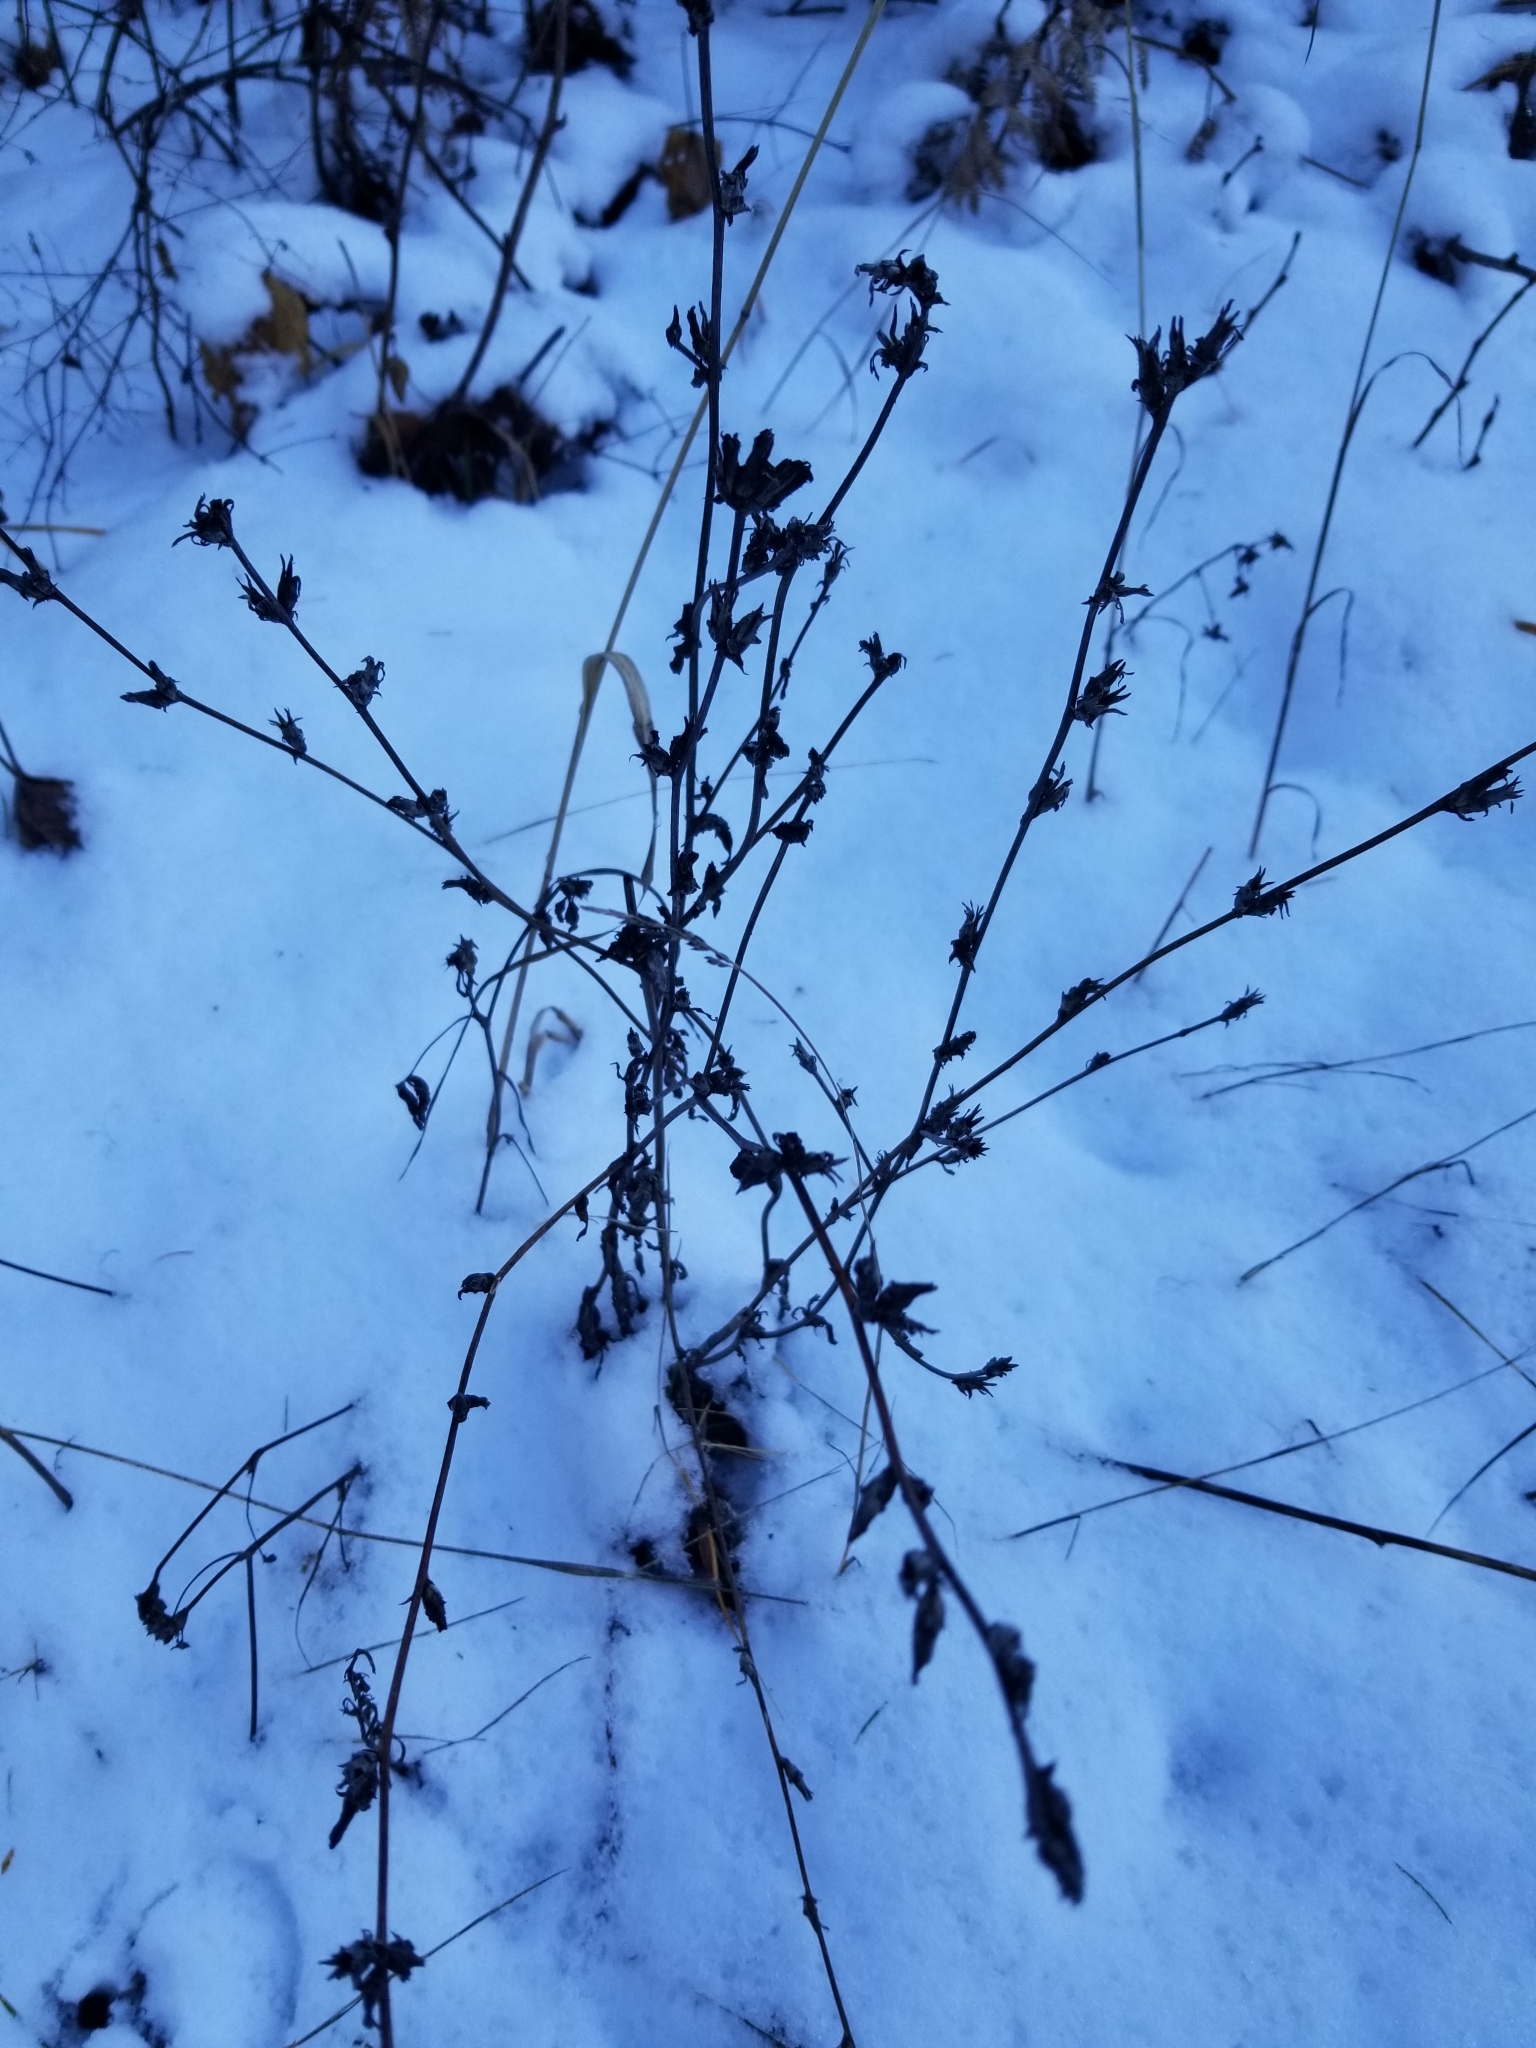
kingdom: Plantae
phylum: Tracheophyta
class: Magnoliopsida
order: Asterales
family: Asteraceae
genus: Cichorium
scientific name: Cichorium intybus
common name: Chicory
